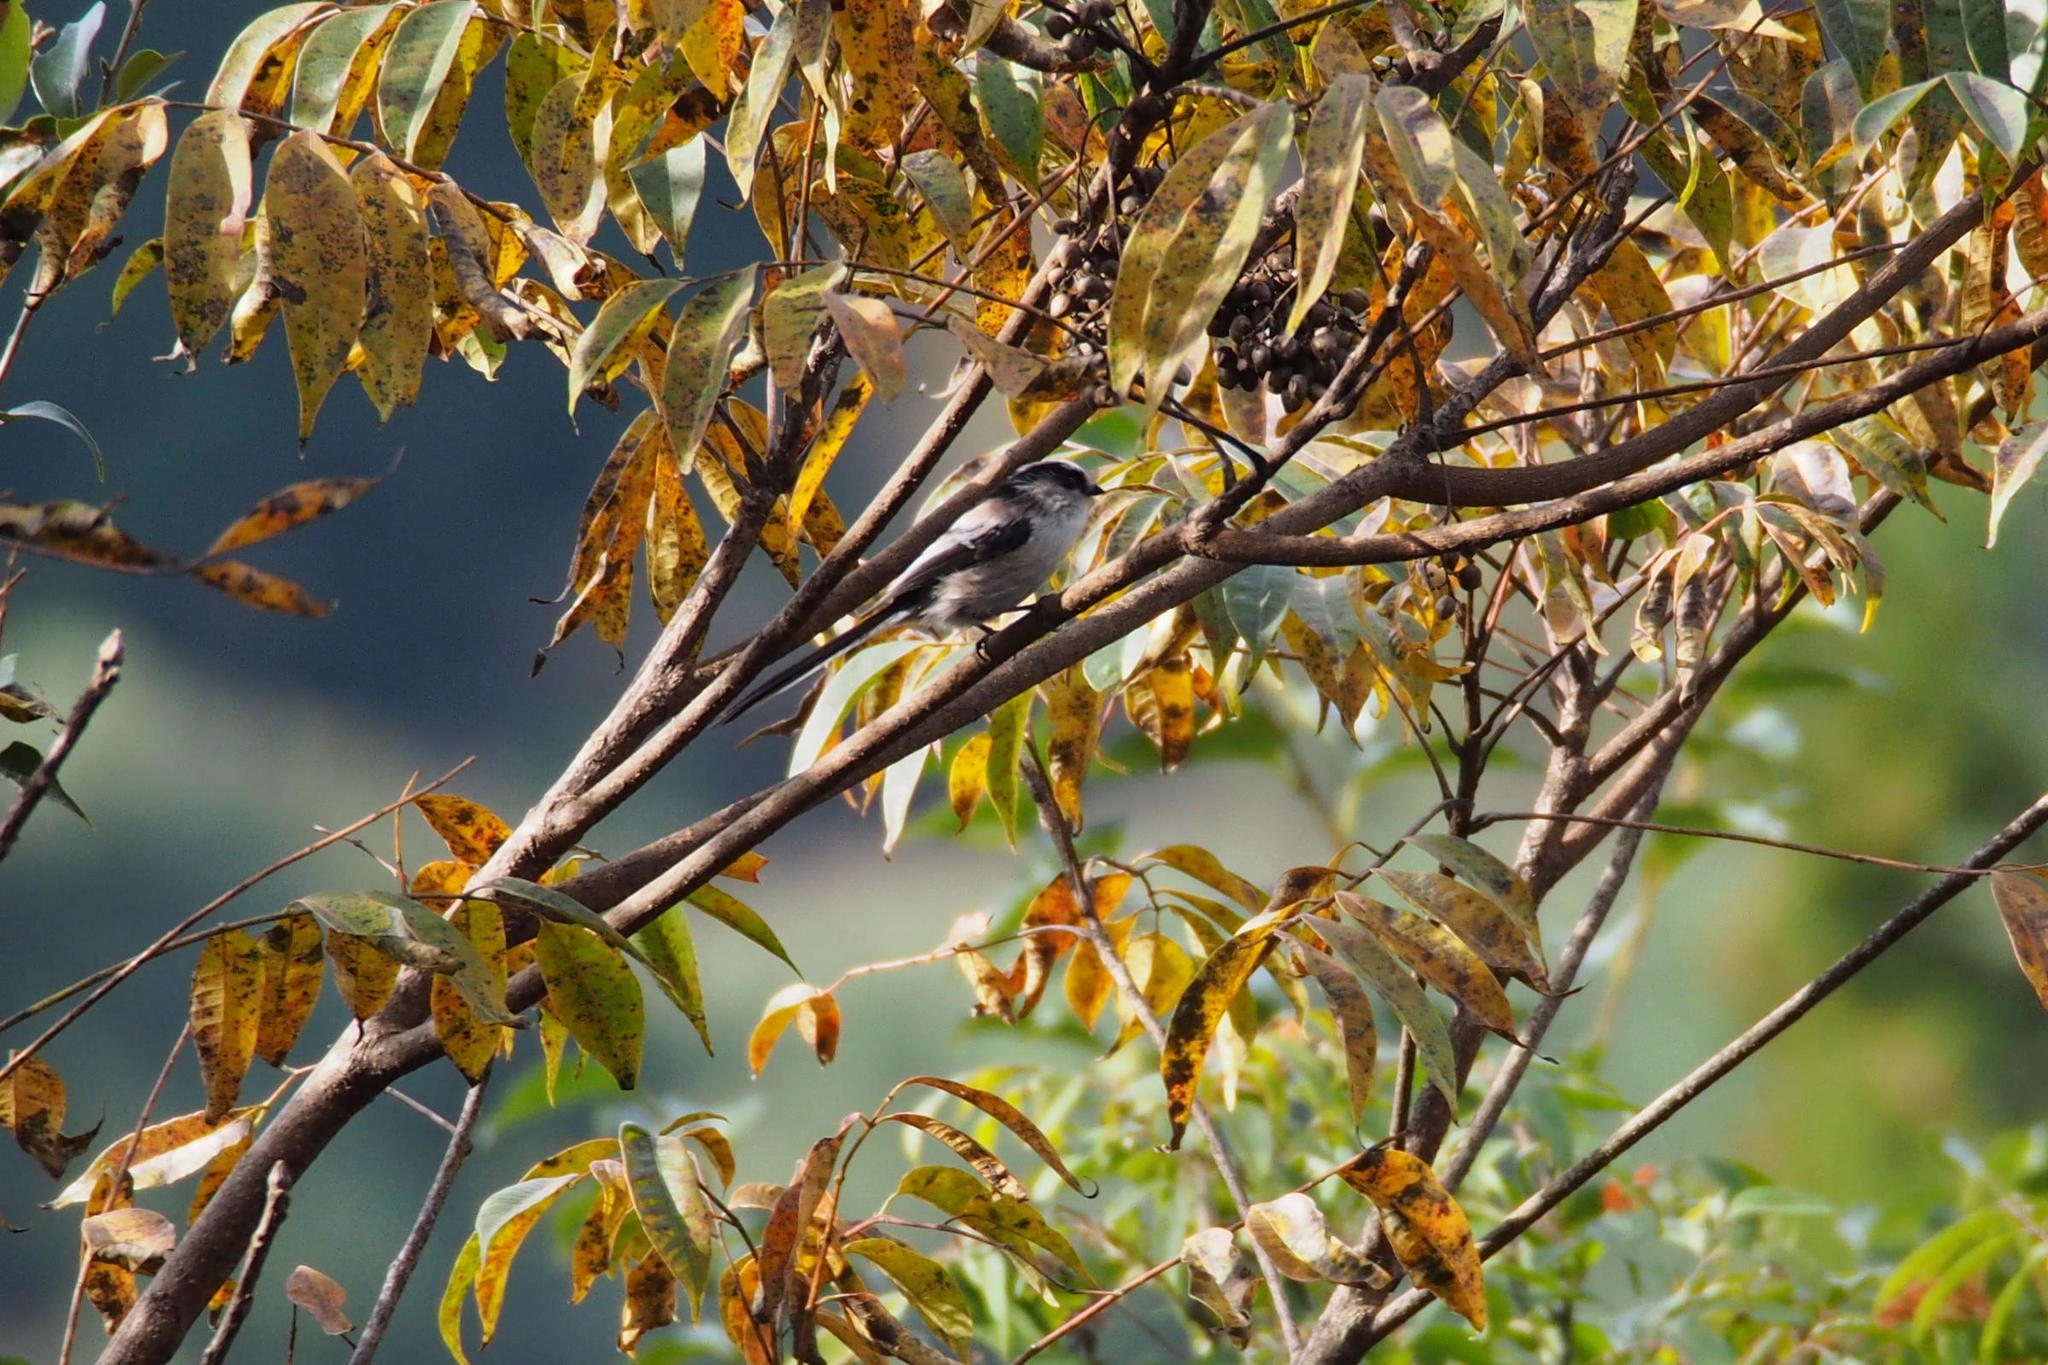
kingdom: Animalia
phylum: Chordata
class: Aves
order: Passeriformes
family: Aegithalidae
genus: Aegithalos
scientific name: Aegithalos caudatus
